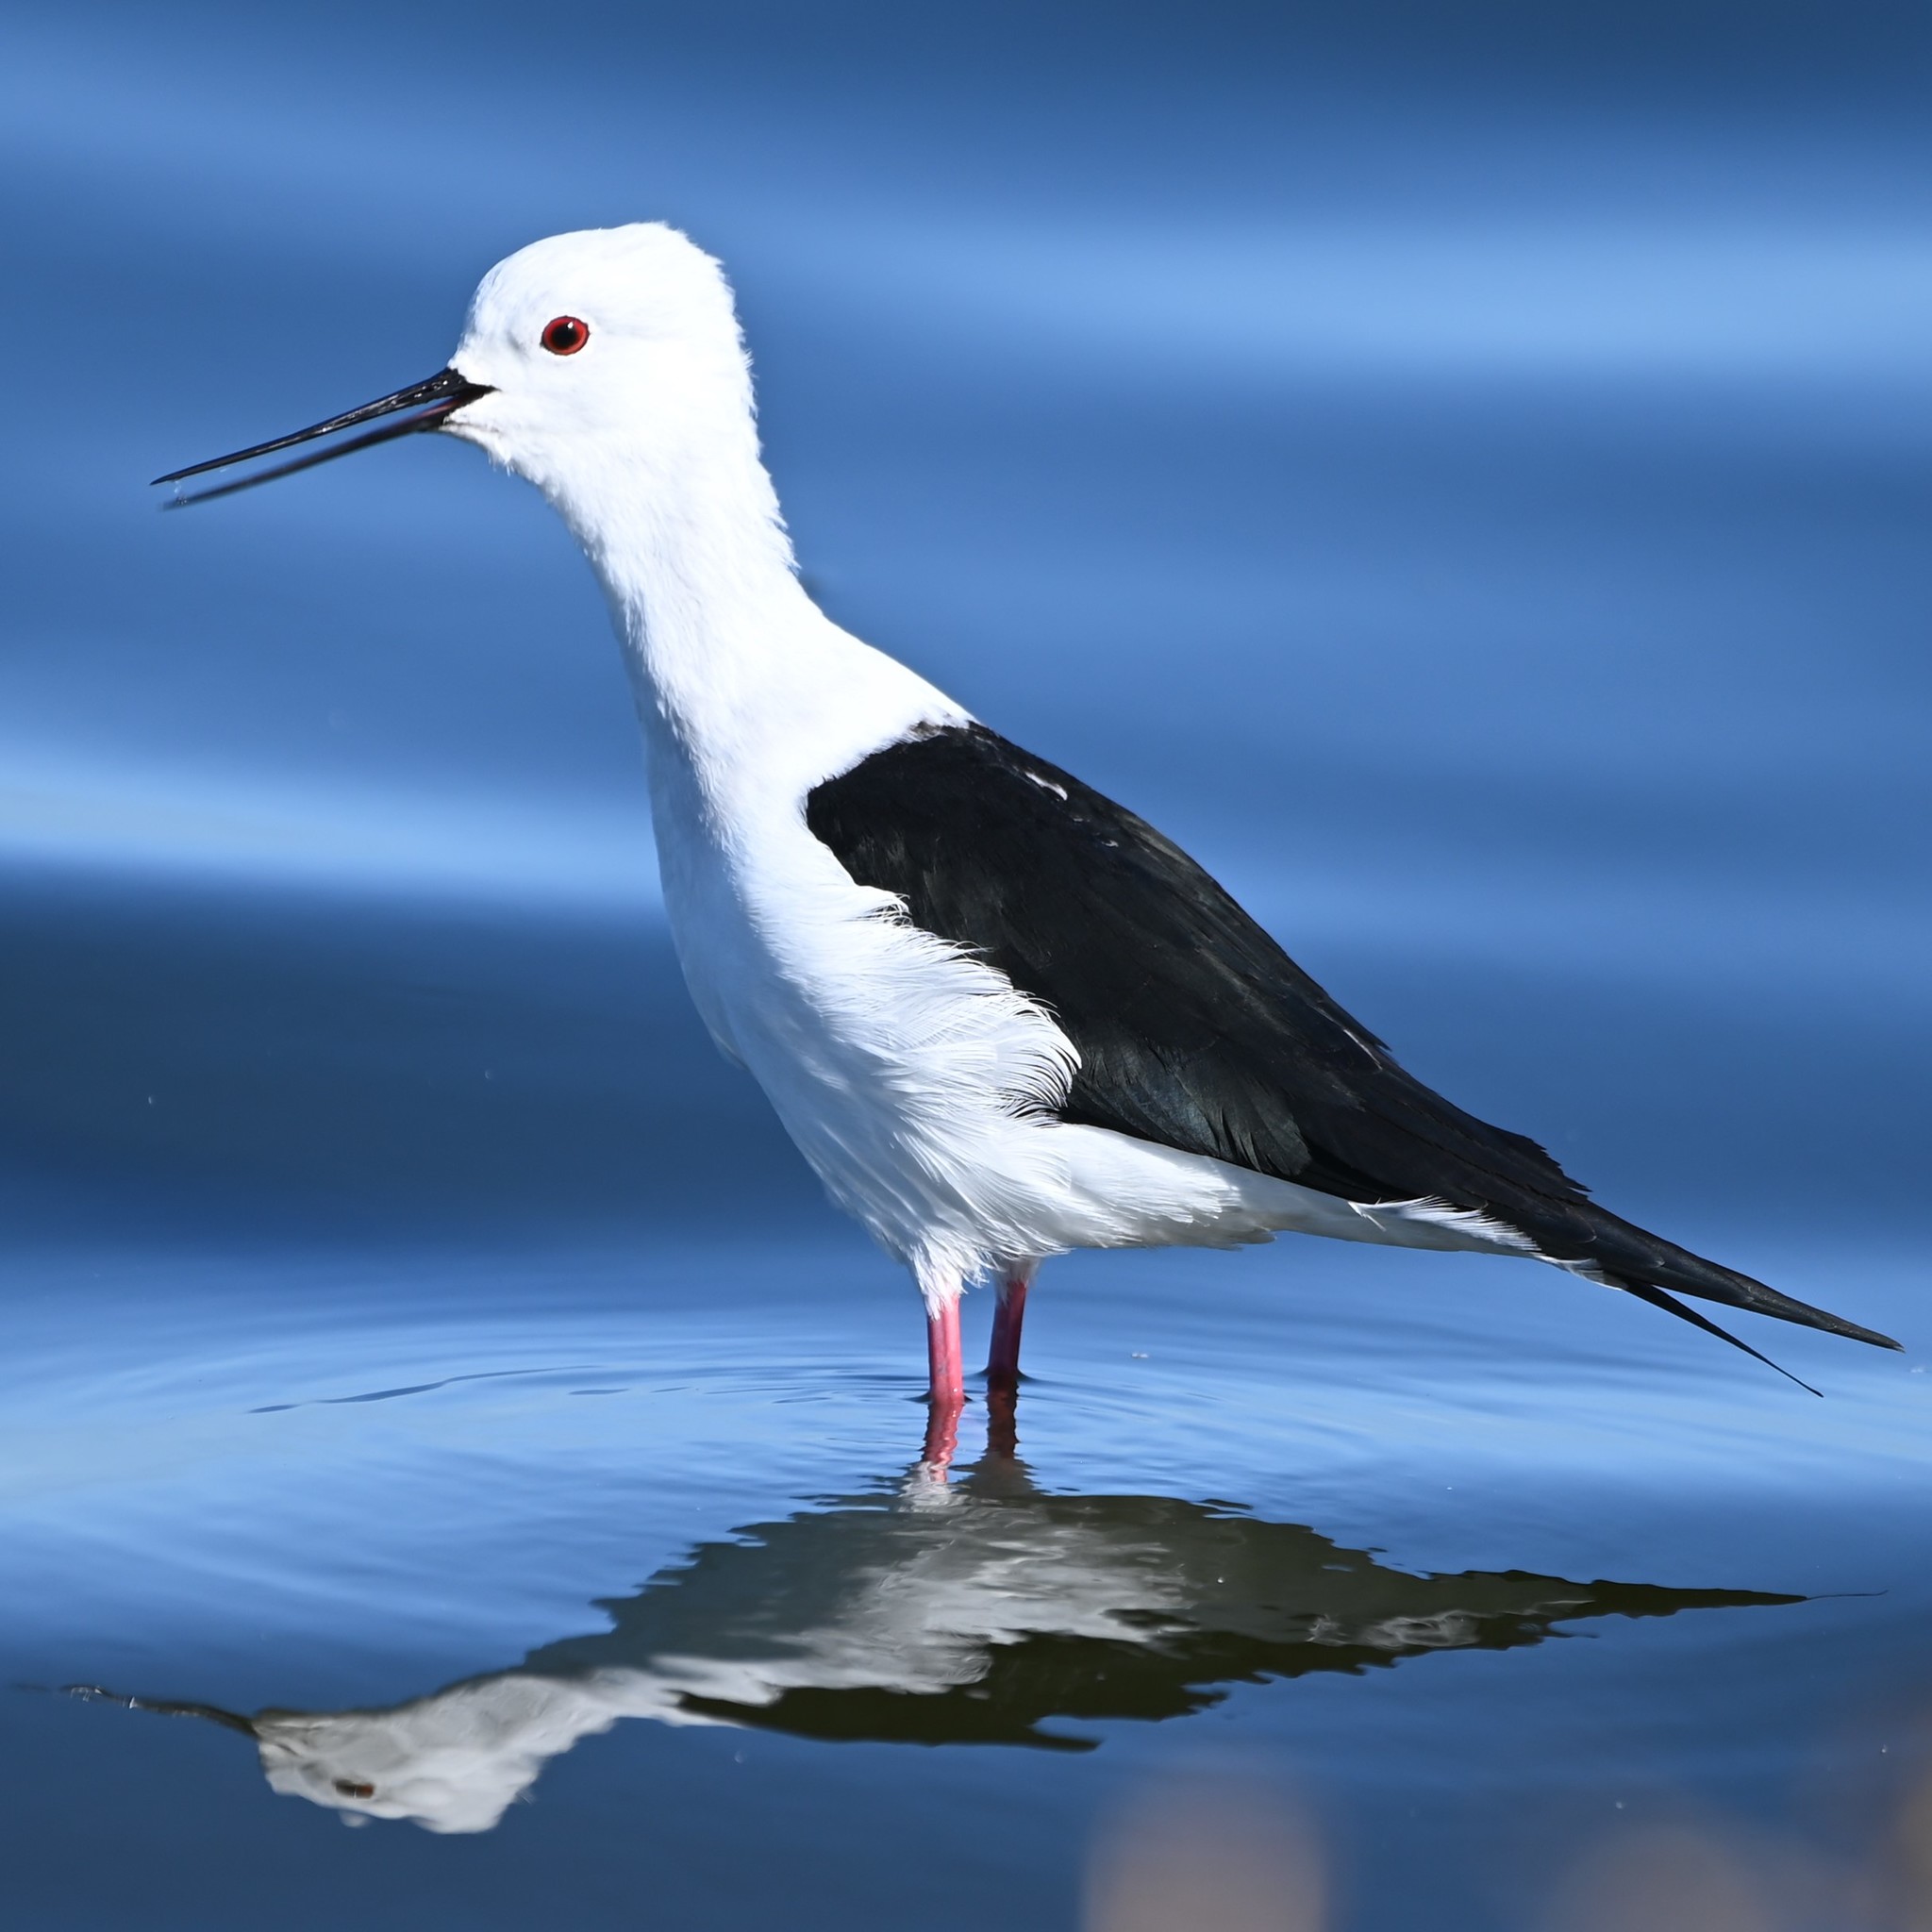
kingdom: Animalia
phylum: Chordata
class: Aves
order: Charadriiformes
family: Recurvirostridae
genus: Himantopus
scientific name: Himantopus himantopus
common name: Black-winged stilt
